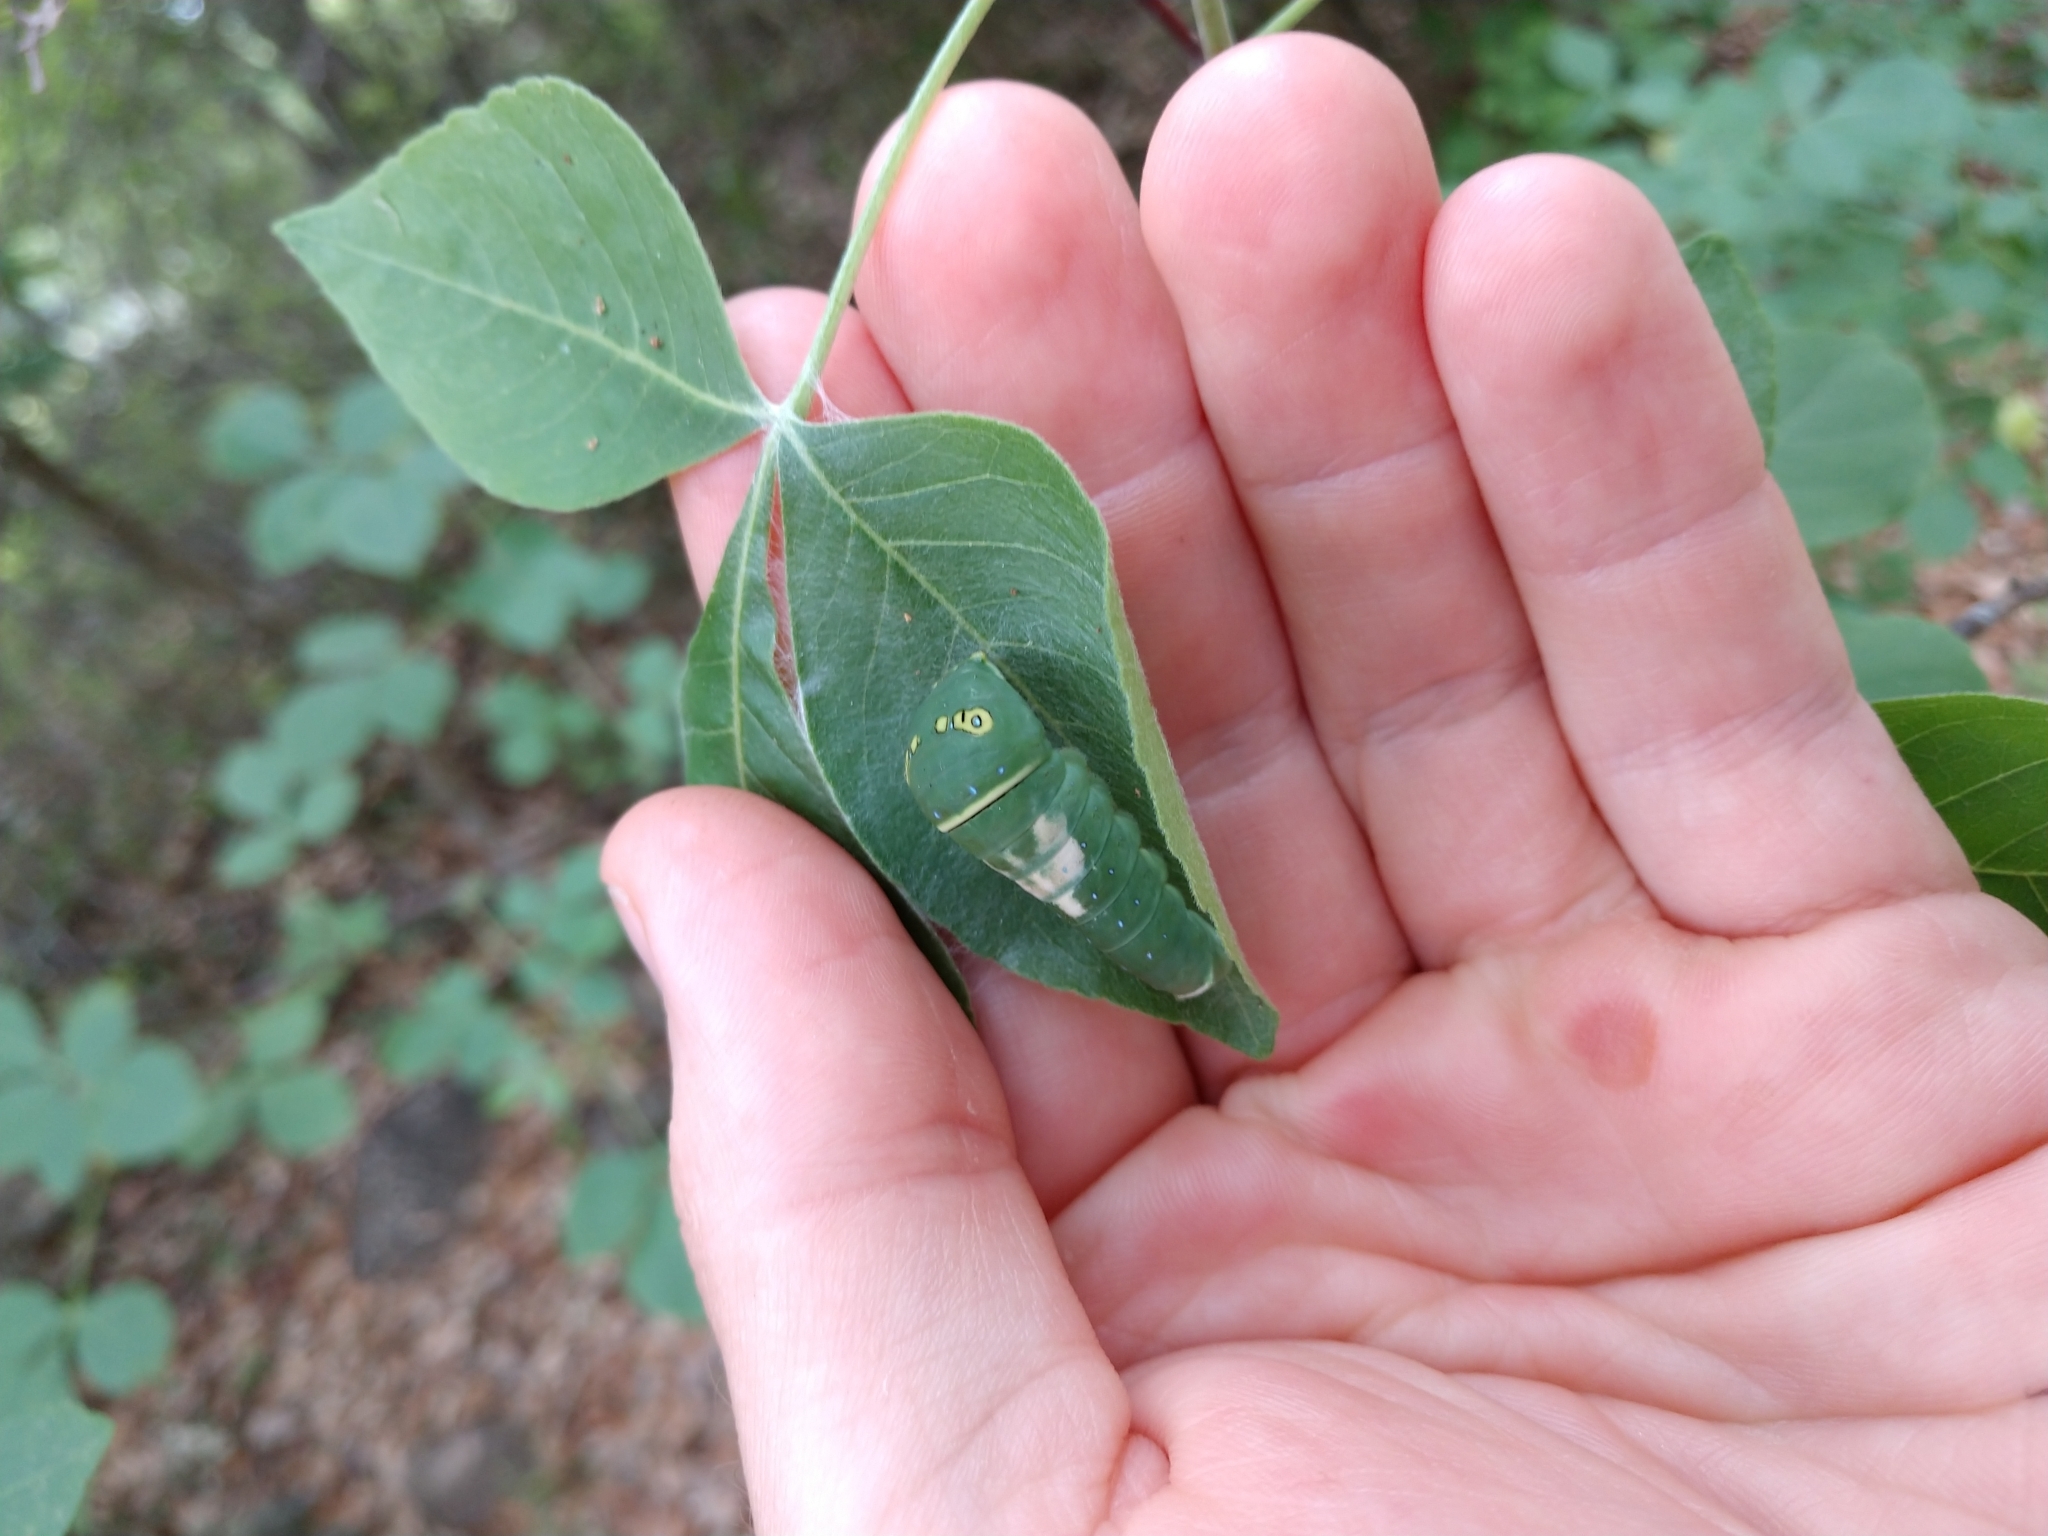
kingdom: Animalia
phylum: Arthropoda
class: Insecta
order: Lepidoptera
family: Papilionidae
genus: Papilio
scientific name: Papilio multicaudata
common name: Two-tailed tiger swallowtail
